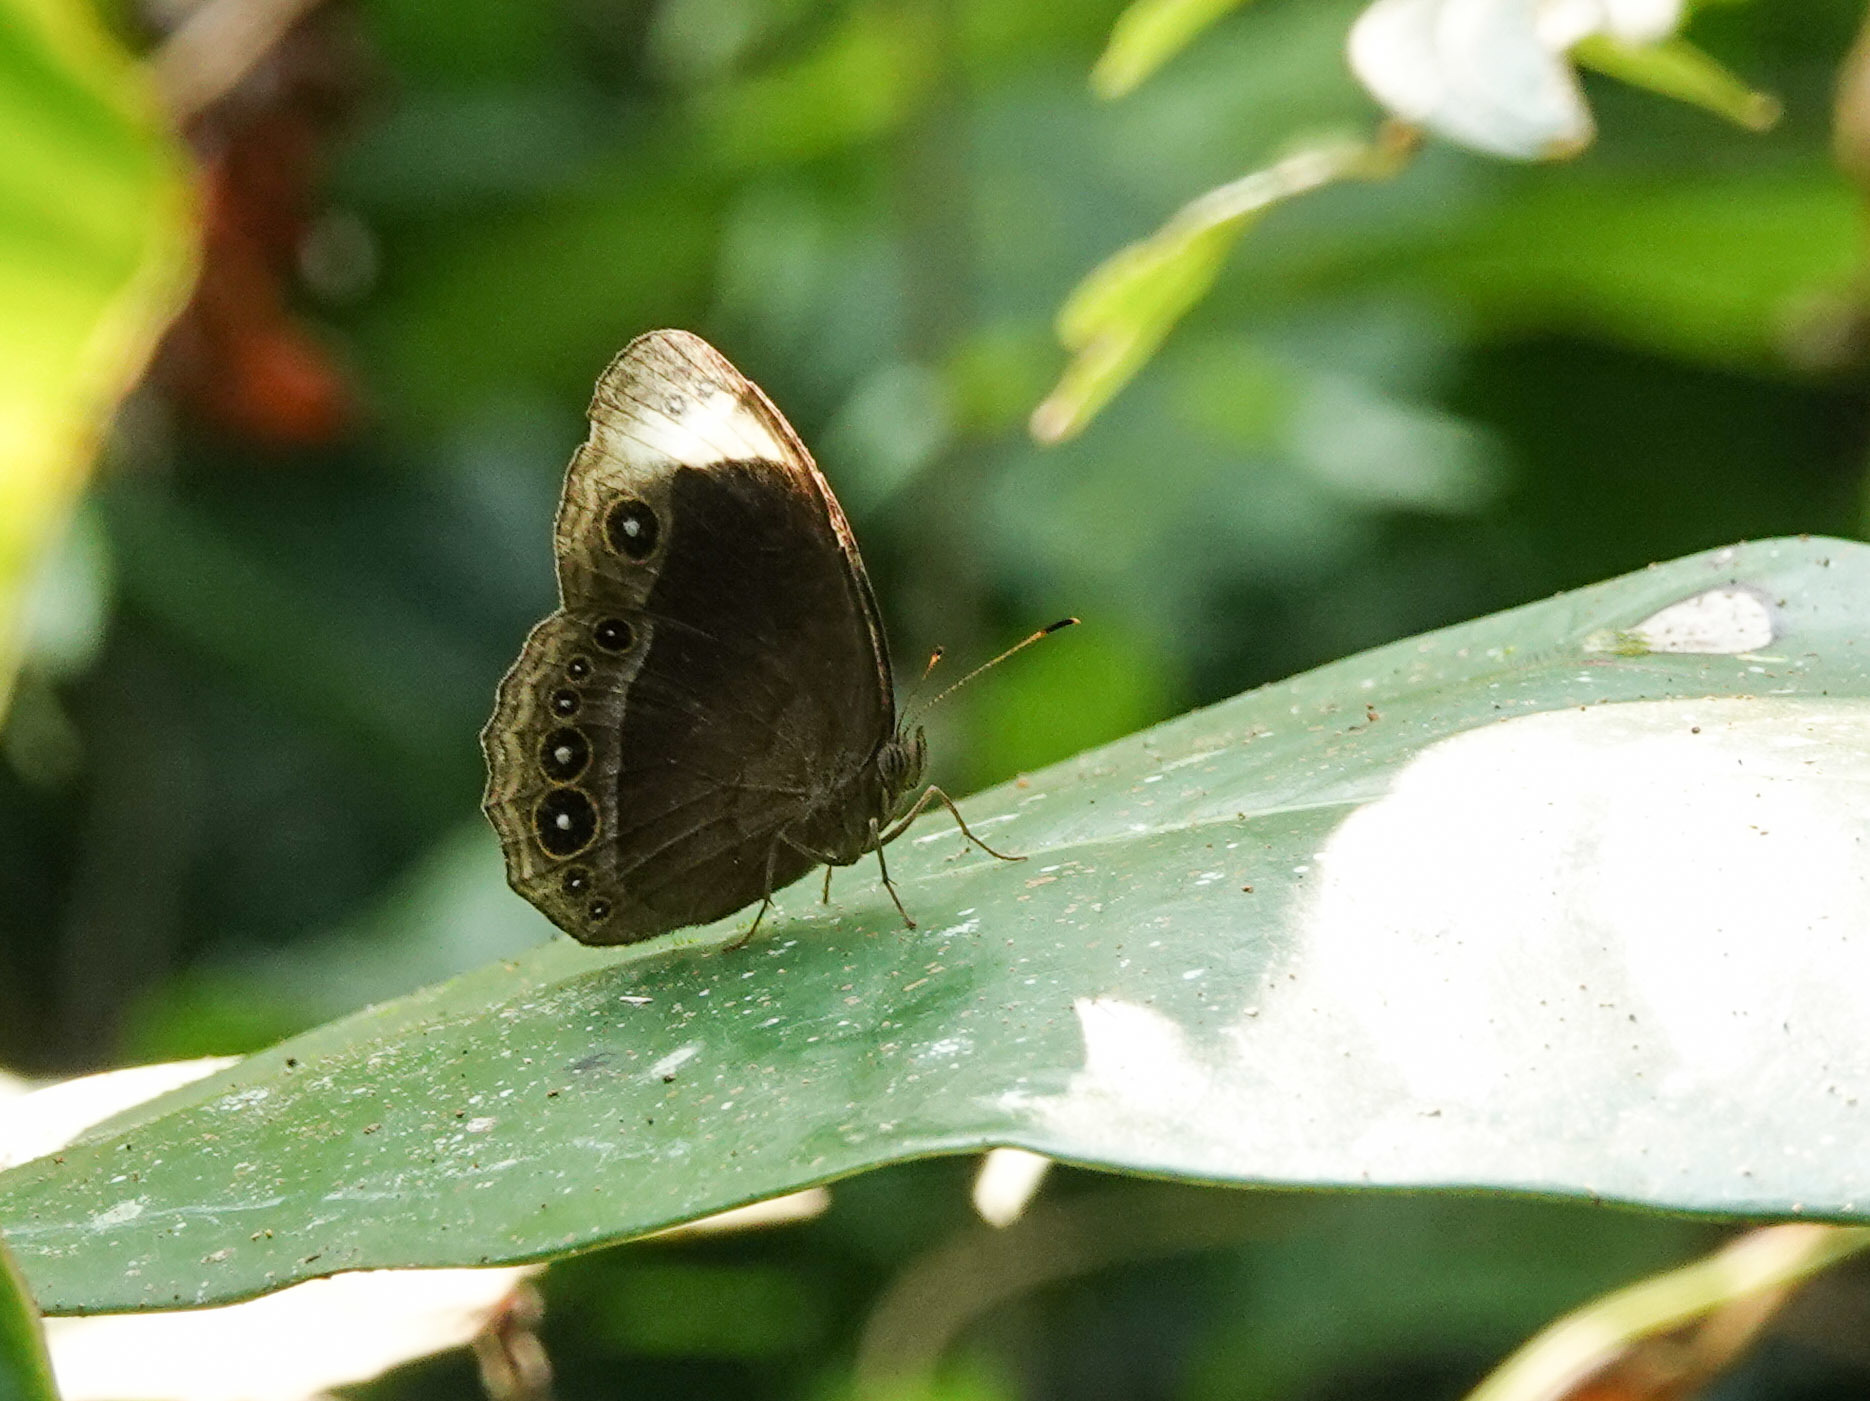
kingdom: Animalia
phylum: Arthropoda
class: Insecta
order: Lepidoptera
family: Nymphalidae
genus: Mycalesis
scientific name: Mycalesis anaxias
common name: White-bar bushbrown
